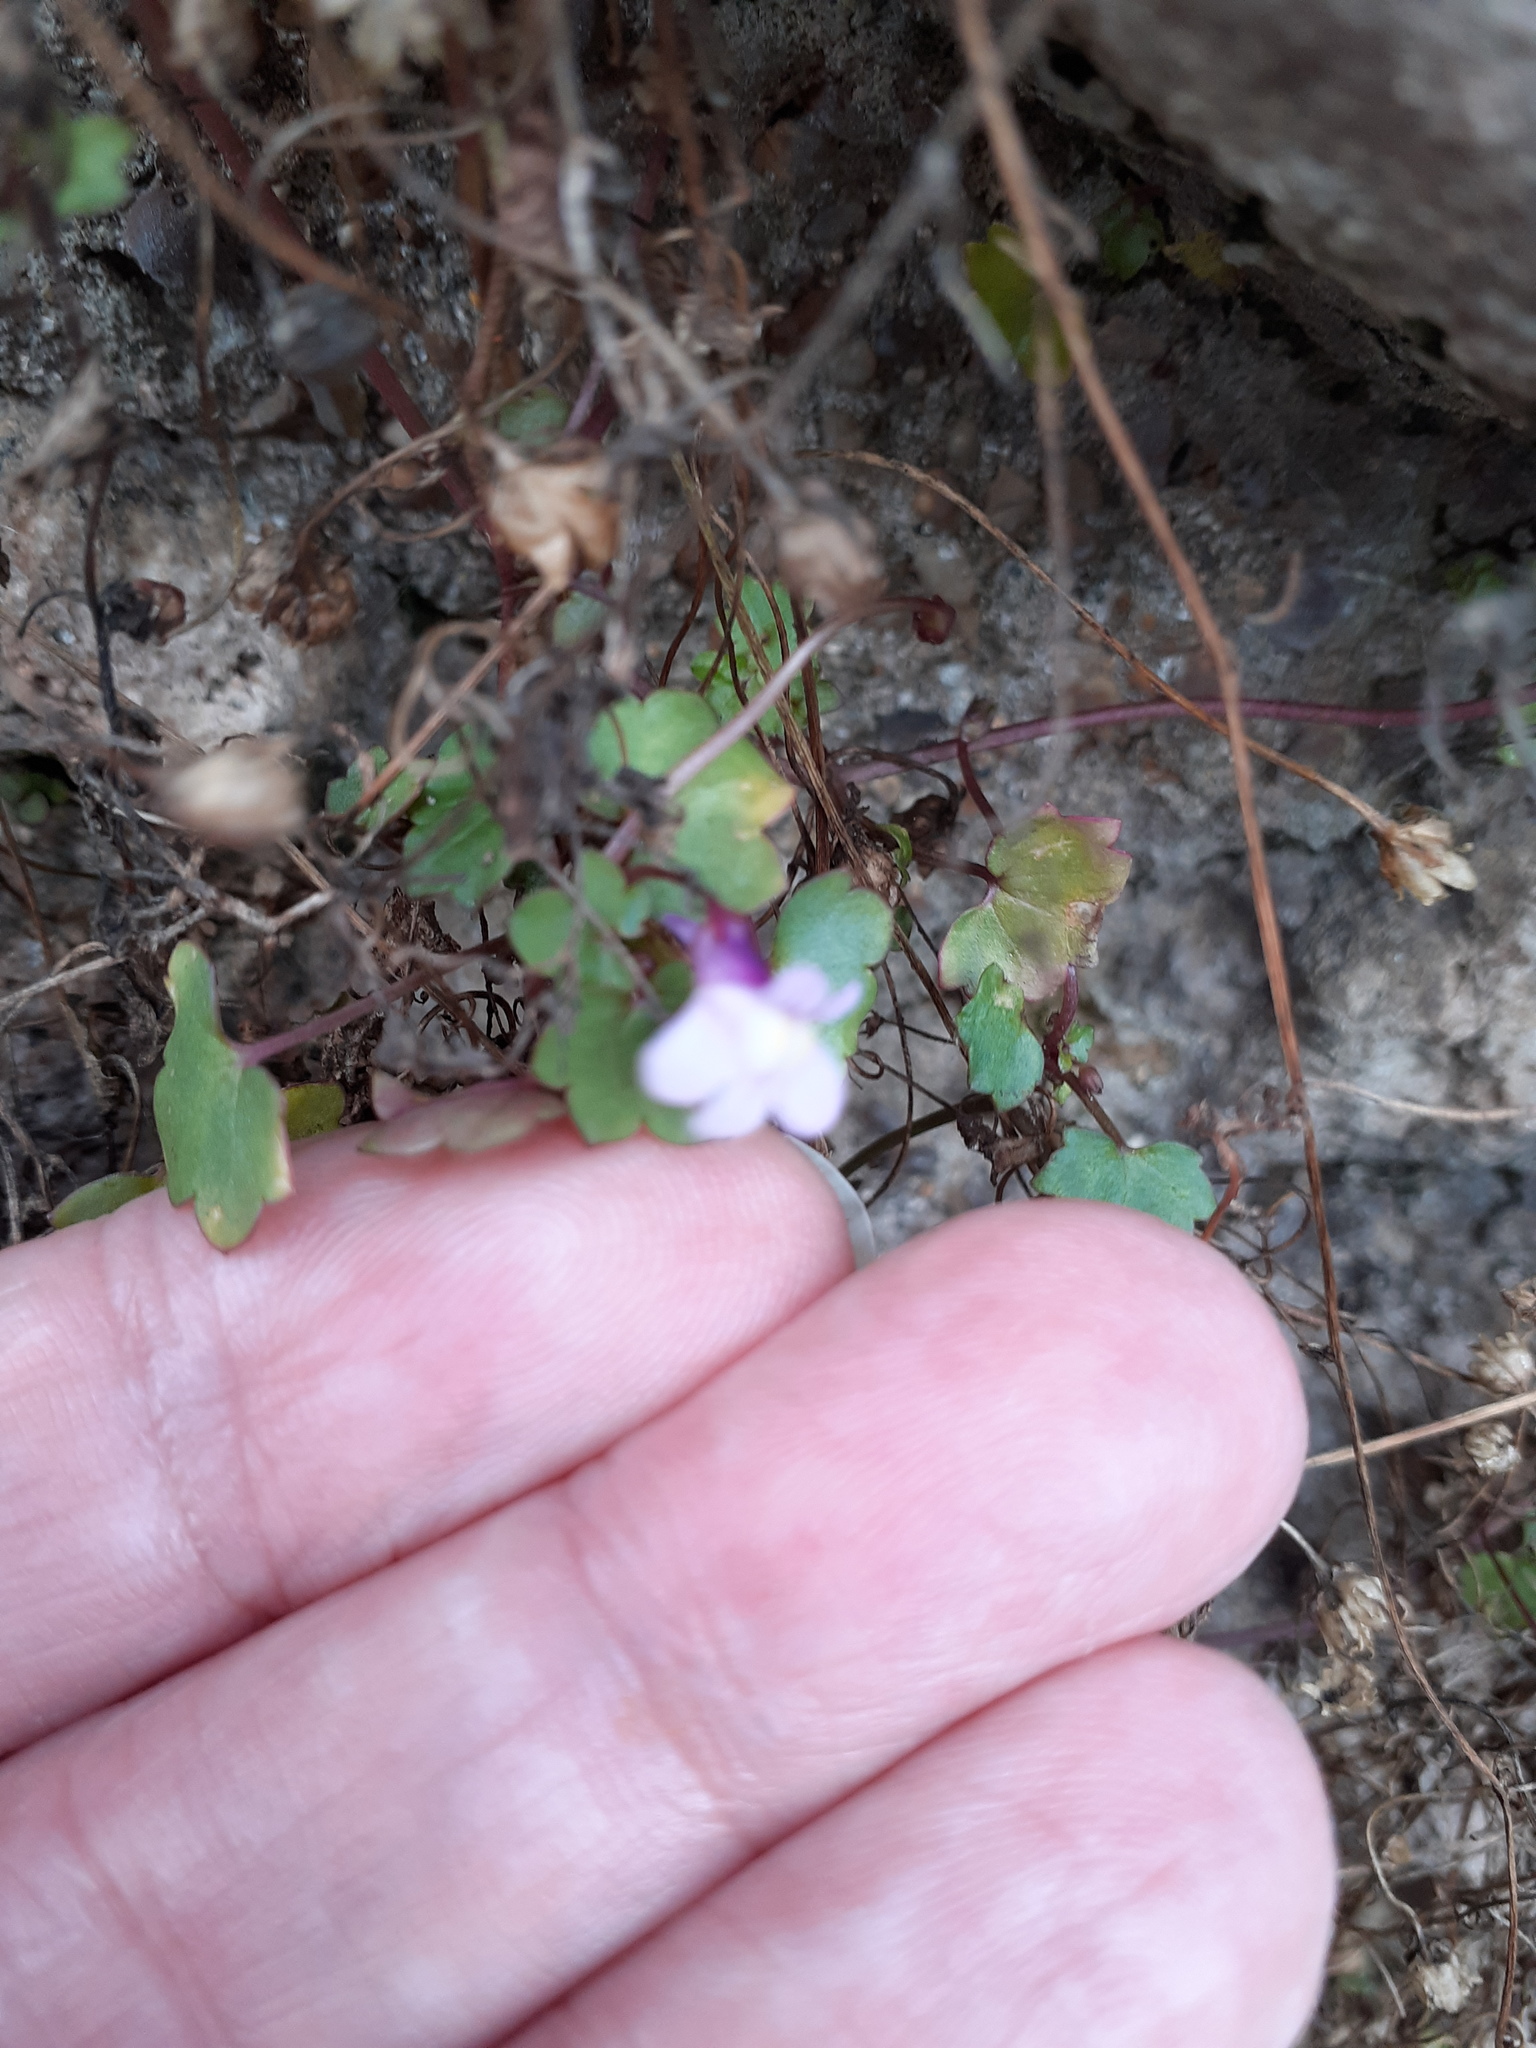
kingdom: Plantae
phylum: Tracheophyta
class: Magnoliopsida
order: Lamiales
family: Plantaginaceae
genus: Cymbalaria
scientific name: Cymbalaria muralis
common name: Ivy-leaved toadflax
